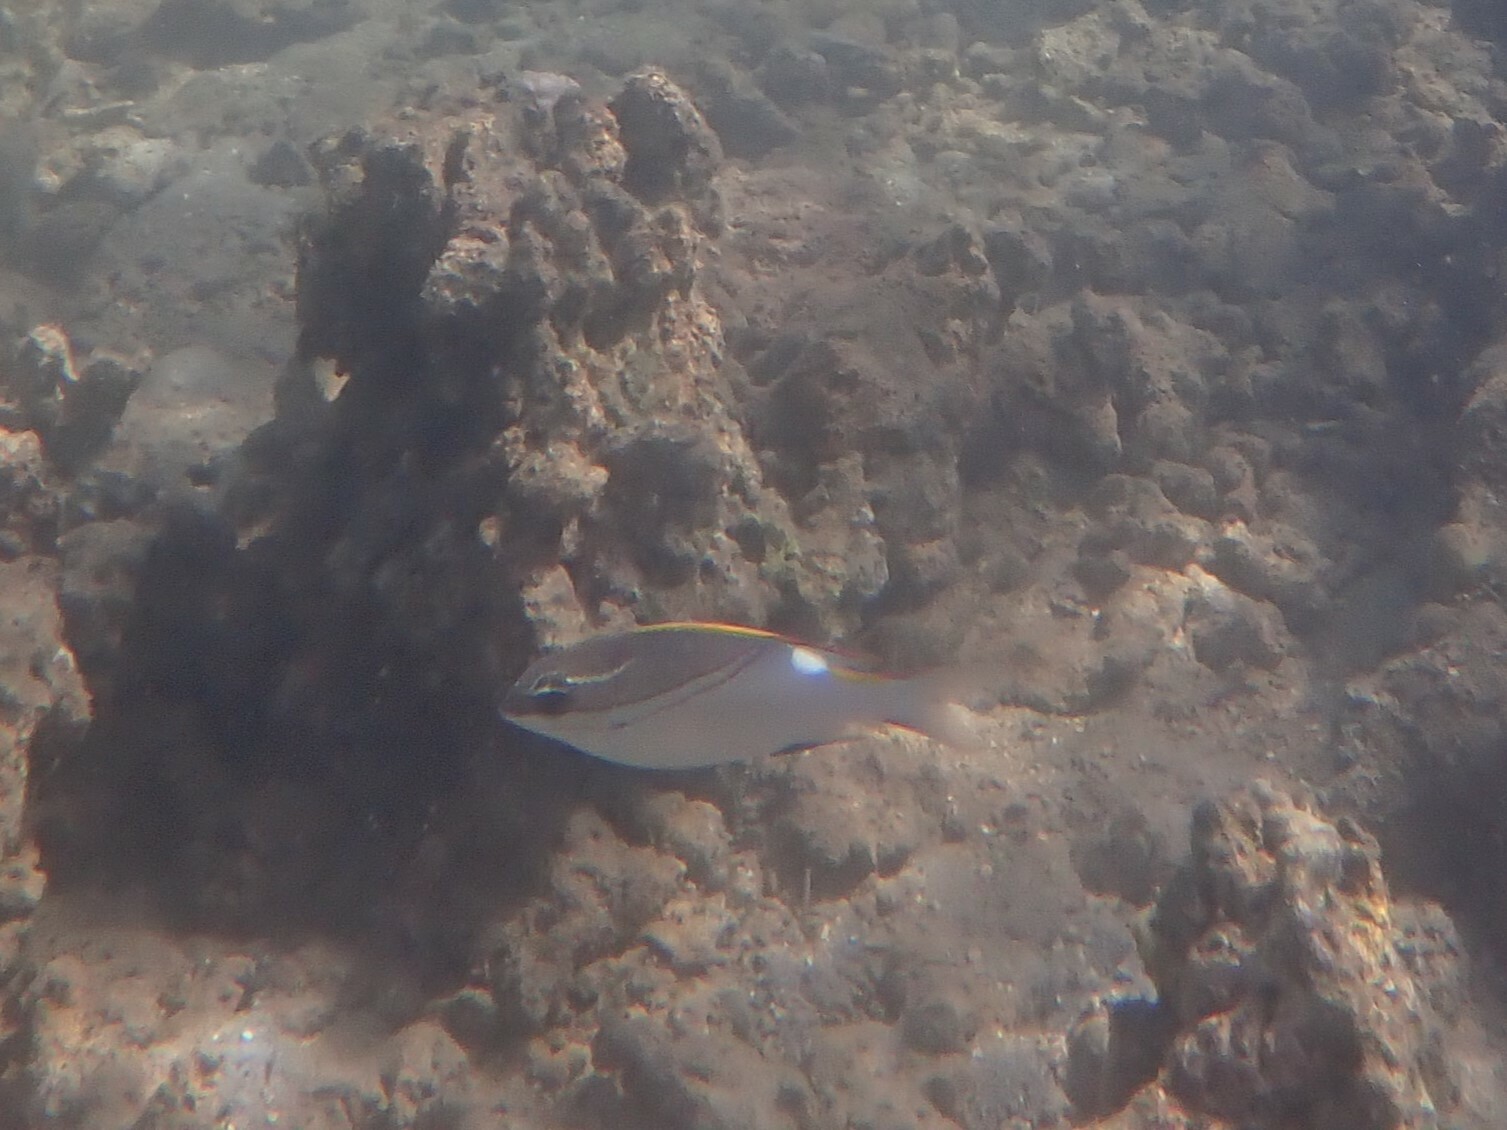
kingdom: Animalia
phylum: Chordata
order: Perciformes
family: Nemipteridae
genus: Scolopsis
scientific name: Scolopsis bilineata
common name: Two-lined monocle bream
